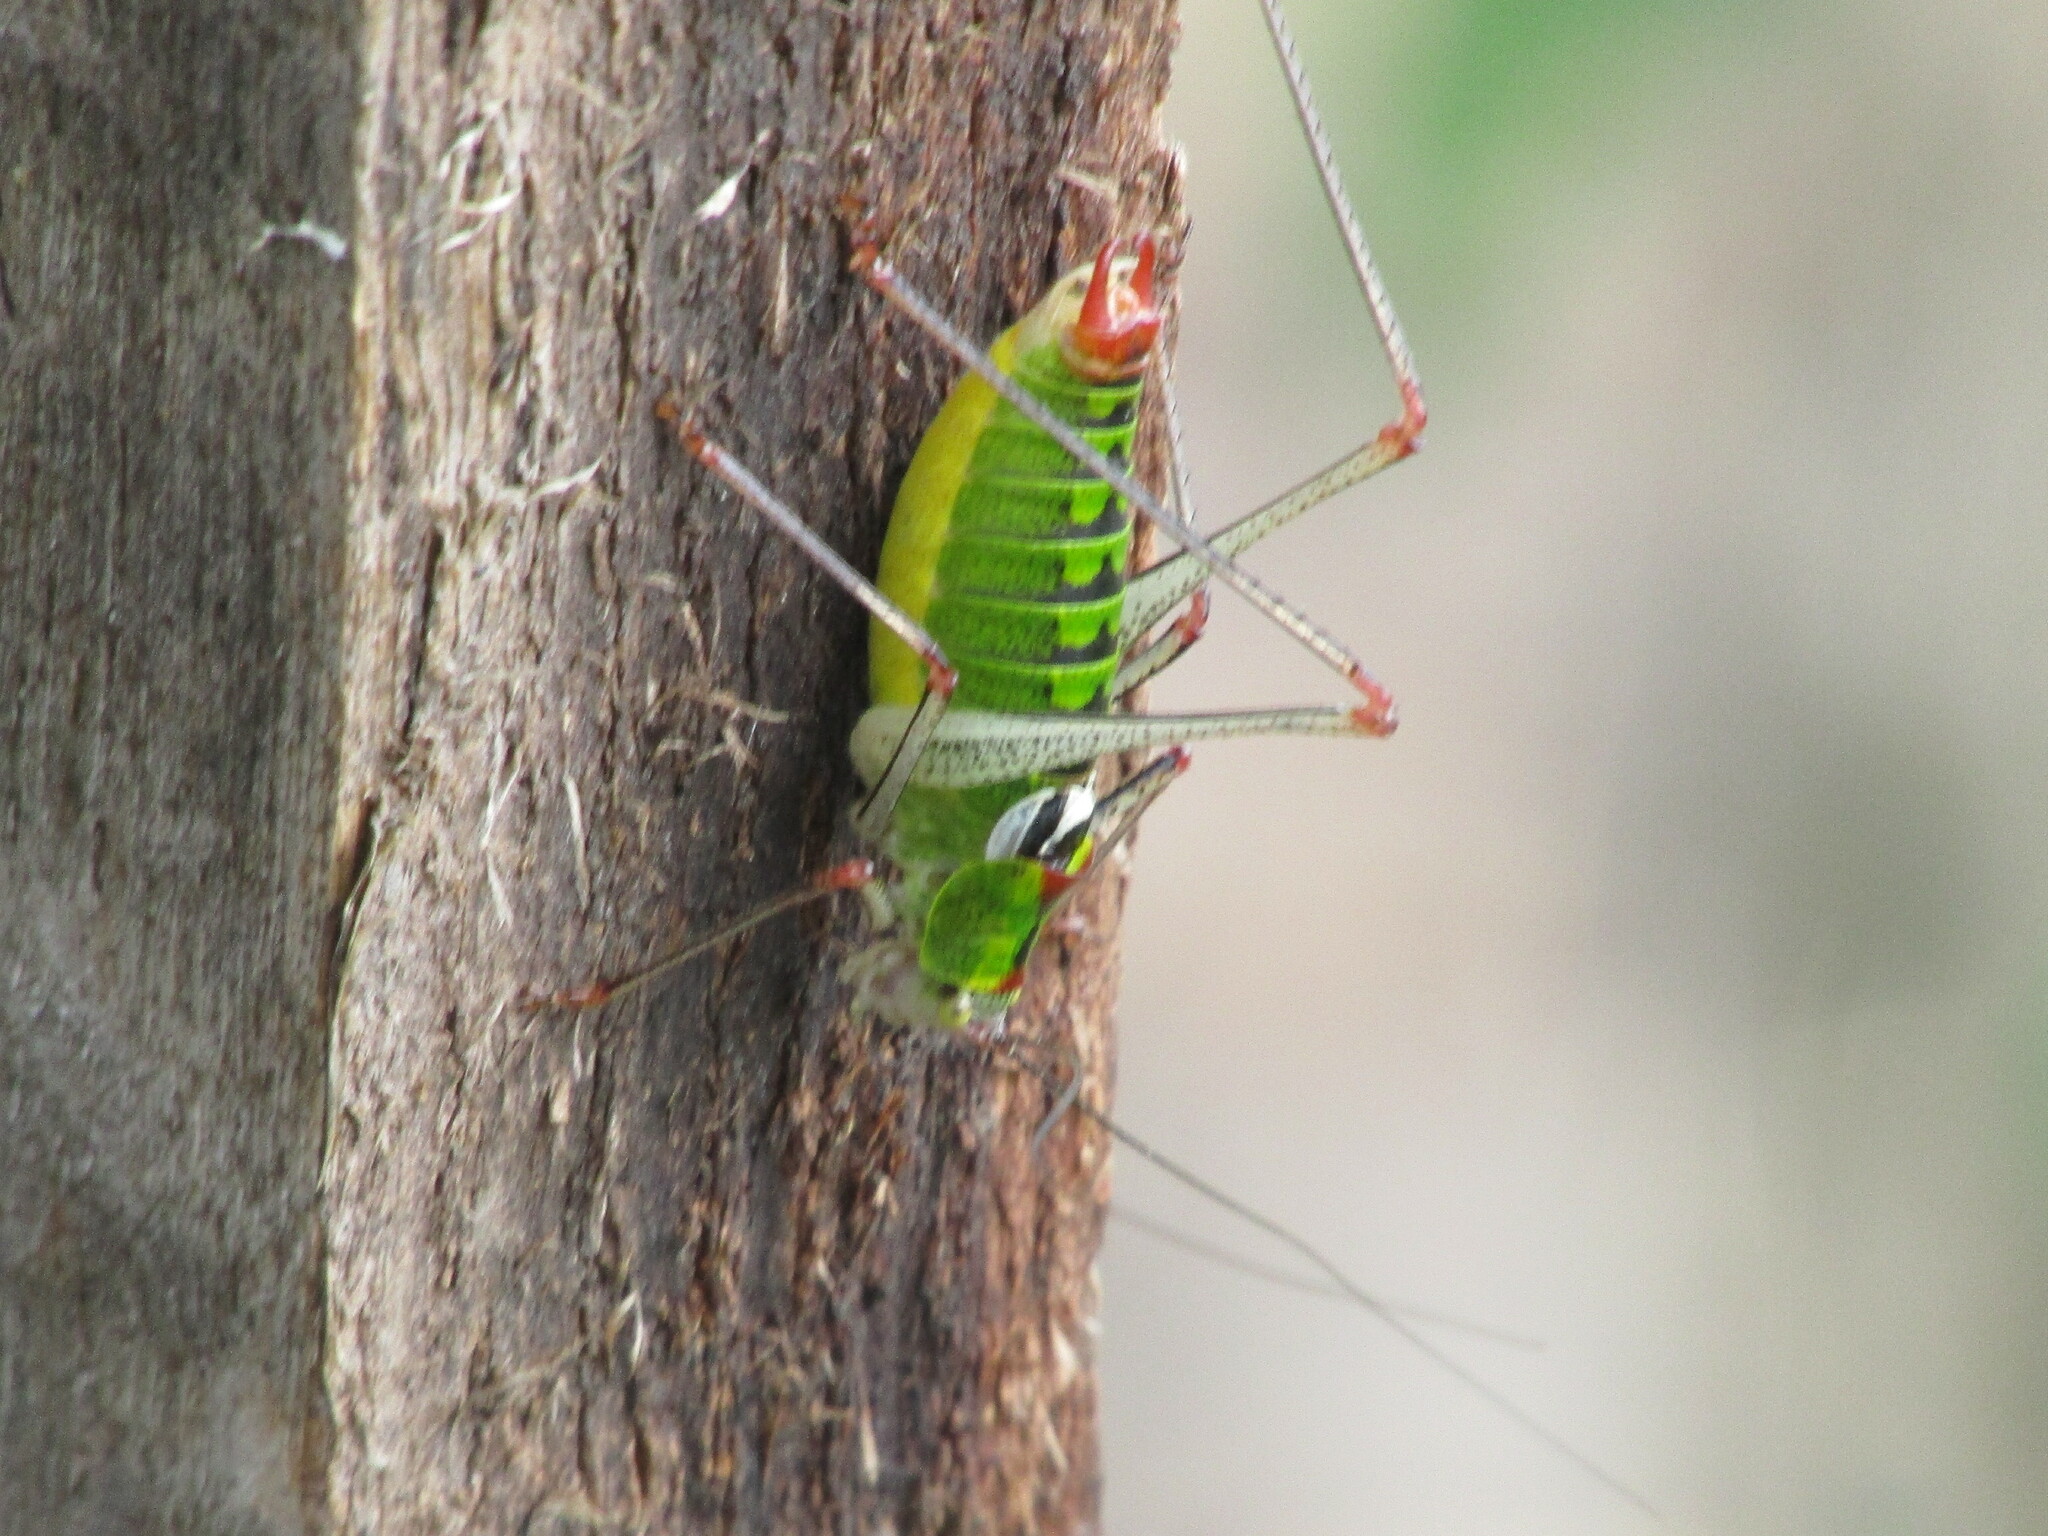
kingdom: Animalia
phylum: Arthropoda
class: Insecta
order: Orthoptera
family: Tettigoniidae
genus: Poecilimon
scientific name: Poecilimon thoracicus
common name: Bellied bright bush-cricket
